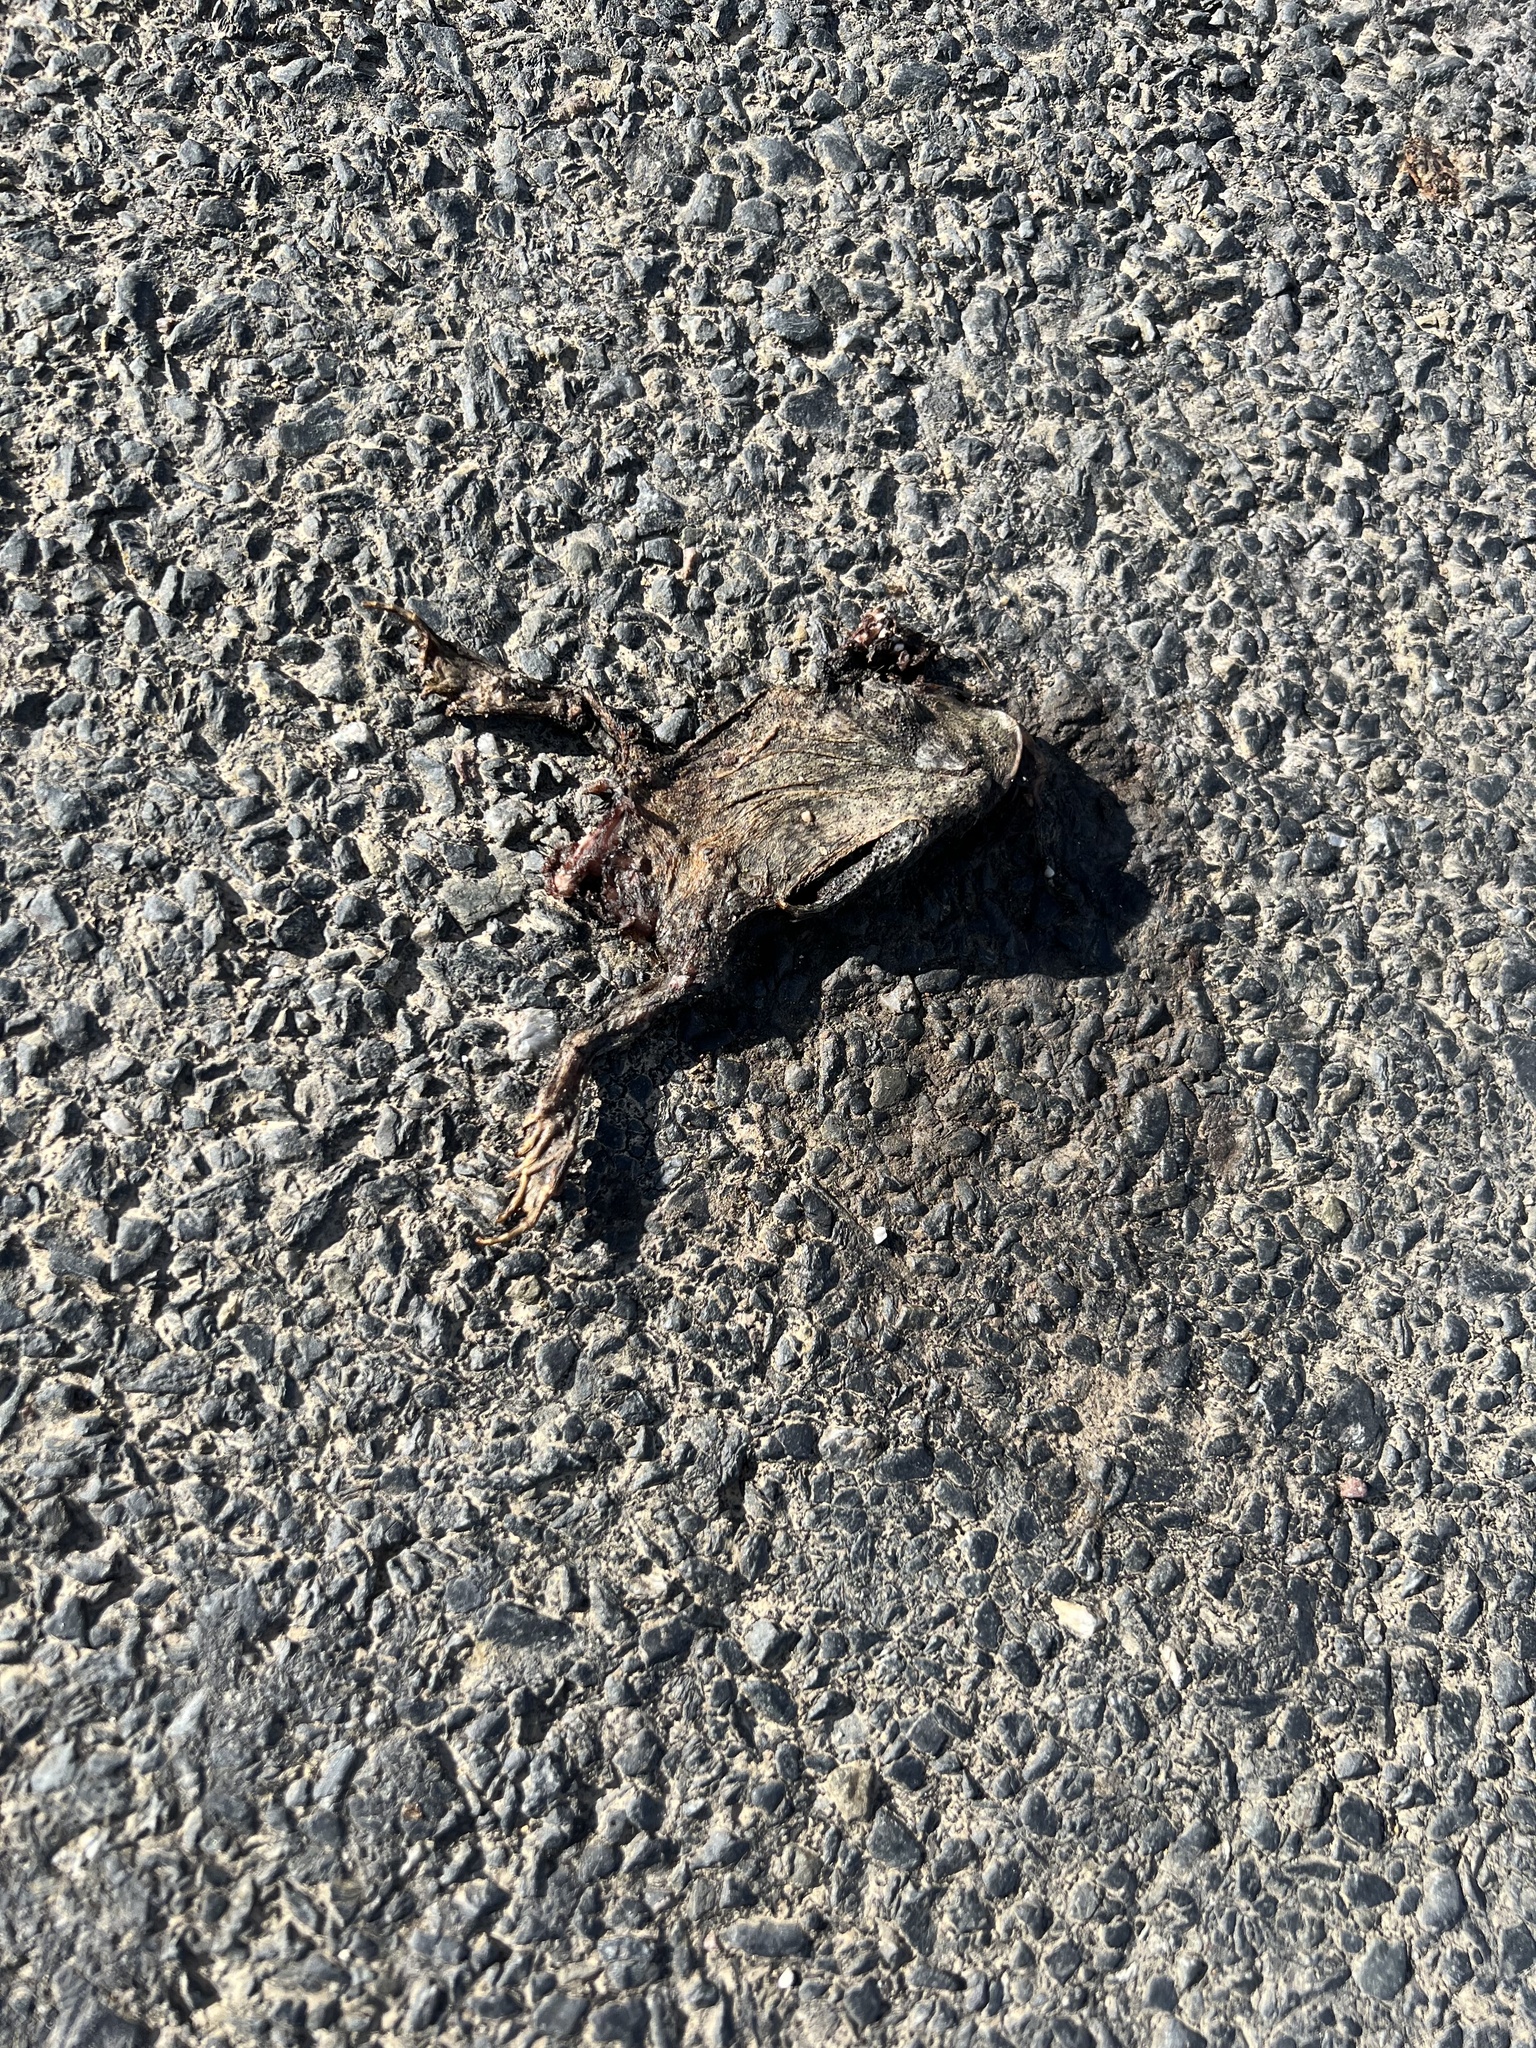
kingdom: Animalia
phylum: Chordata
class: Amphibia
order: Anura
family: Bufonidae
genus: Bufo
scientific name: Bufo bufo
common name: Common toad
